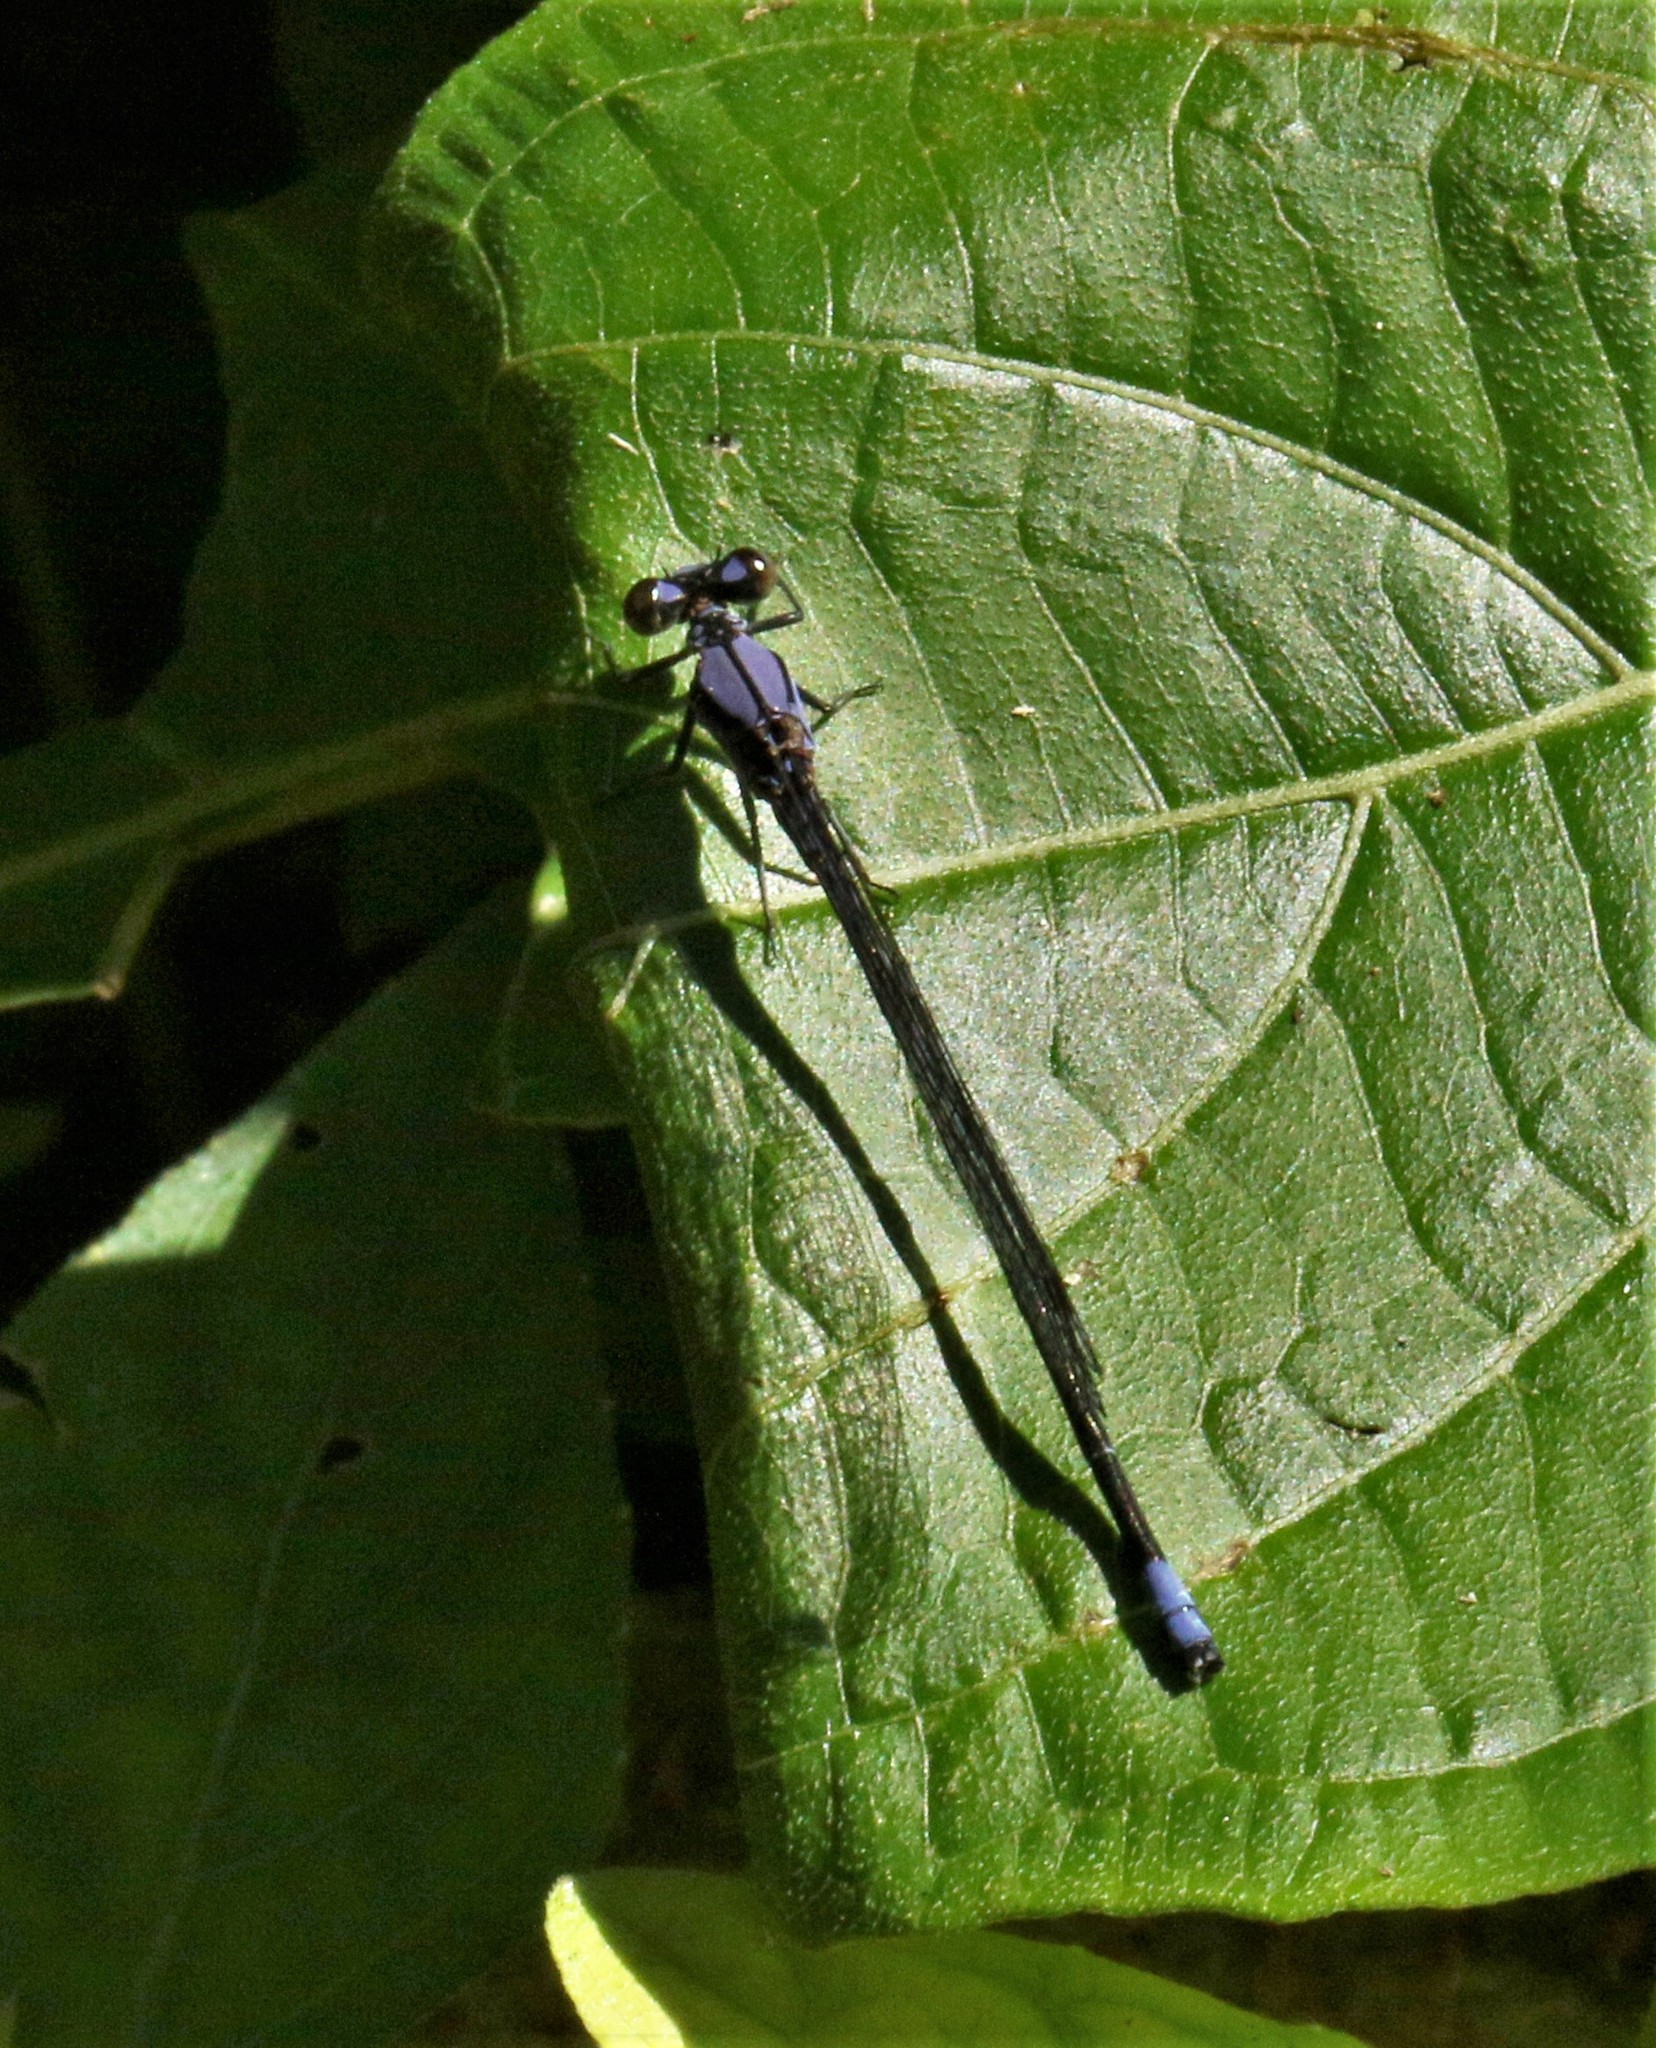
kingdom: Animalia
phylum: Arthropoda
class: Insecta
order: Odonata
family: Coenagrionidae
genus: Argia
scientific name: Argia talamanca
